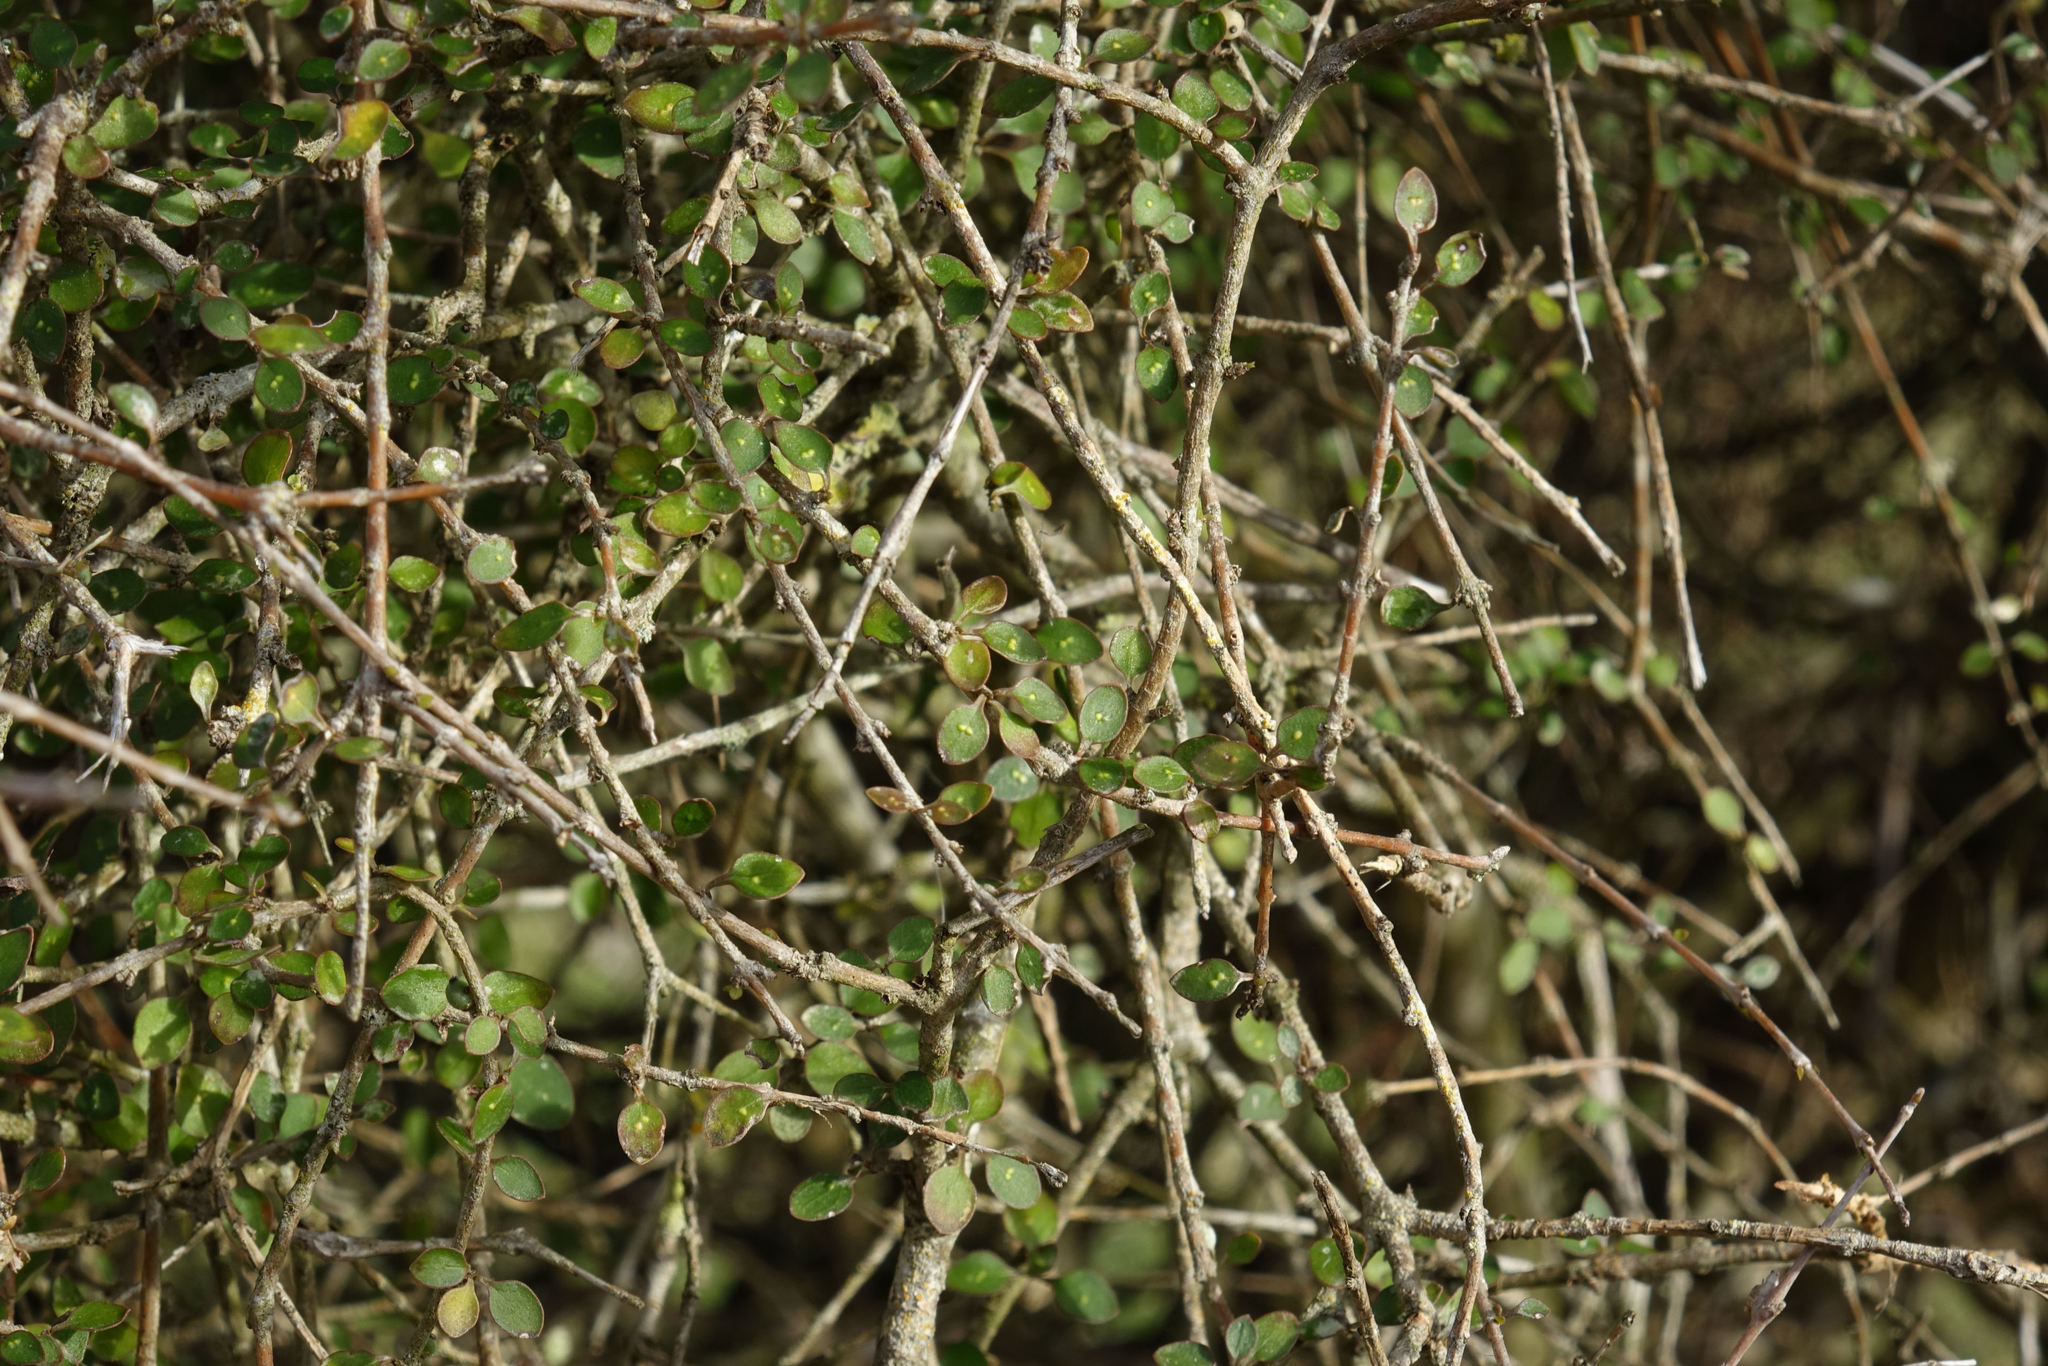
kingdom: Plantae
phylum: Tracheophyta
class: Magnoliopsida
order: Gentianales
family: Rubiaceae
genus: Coprosma
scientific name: Coprosma virescens
